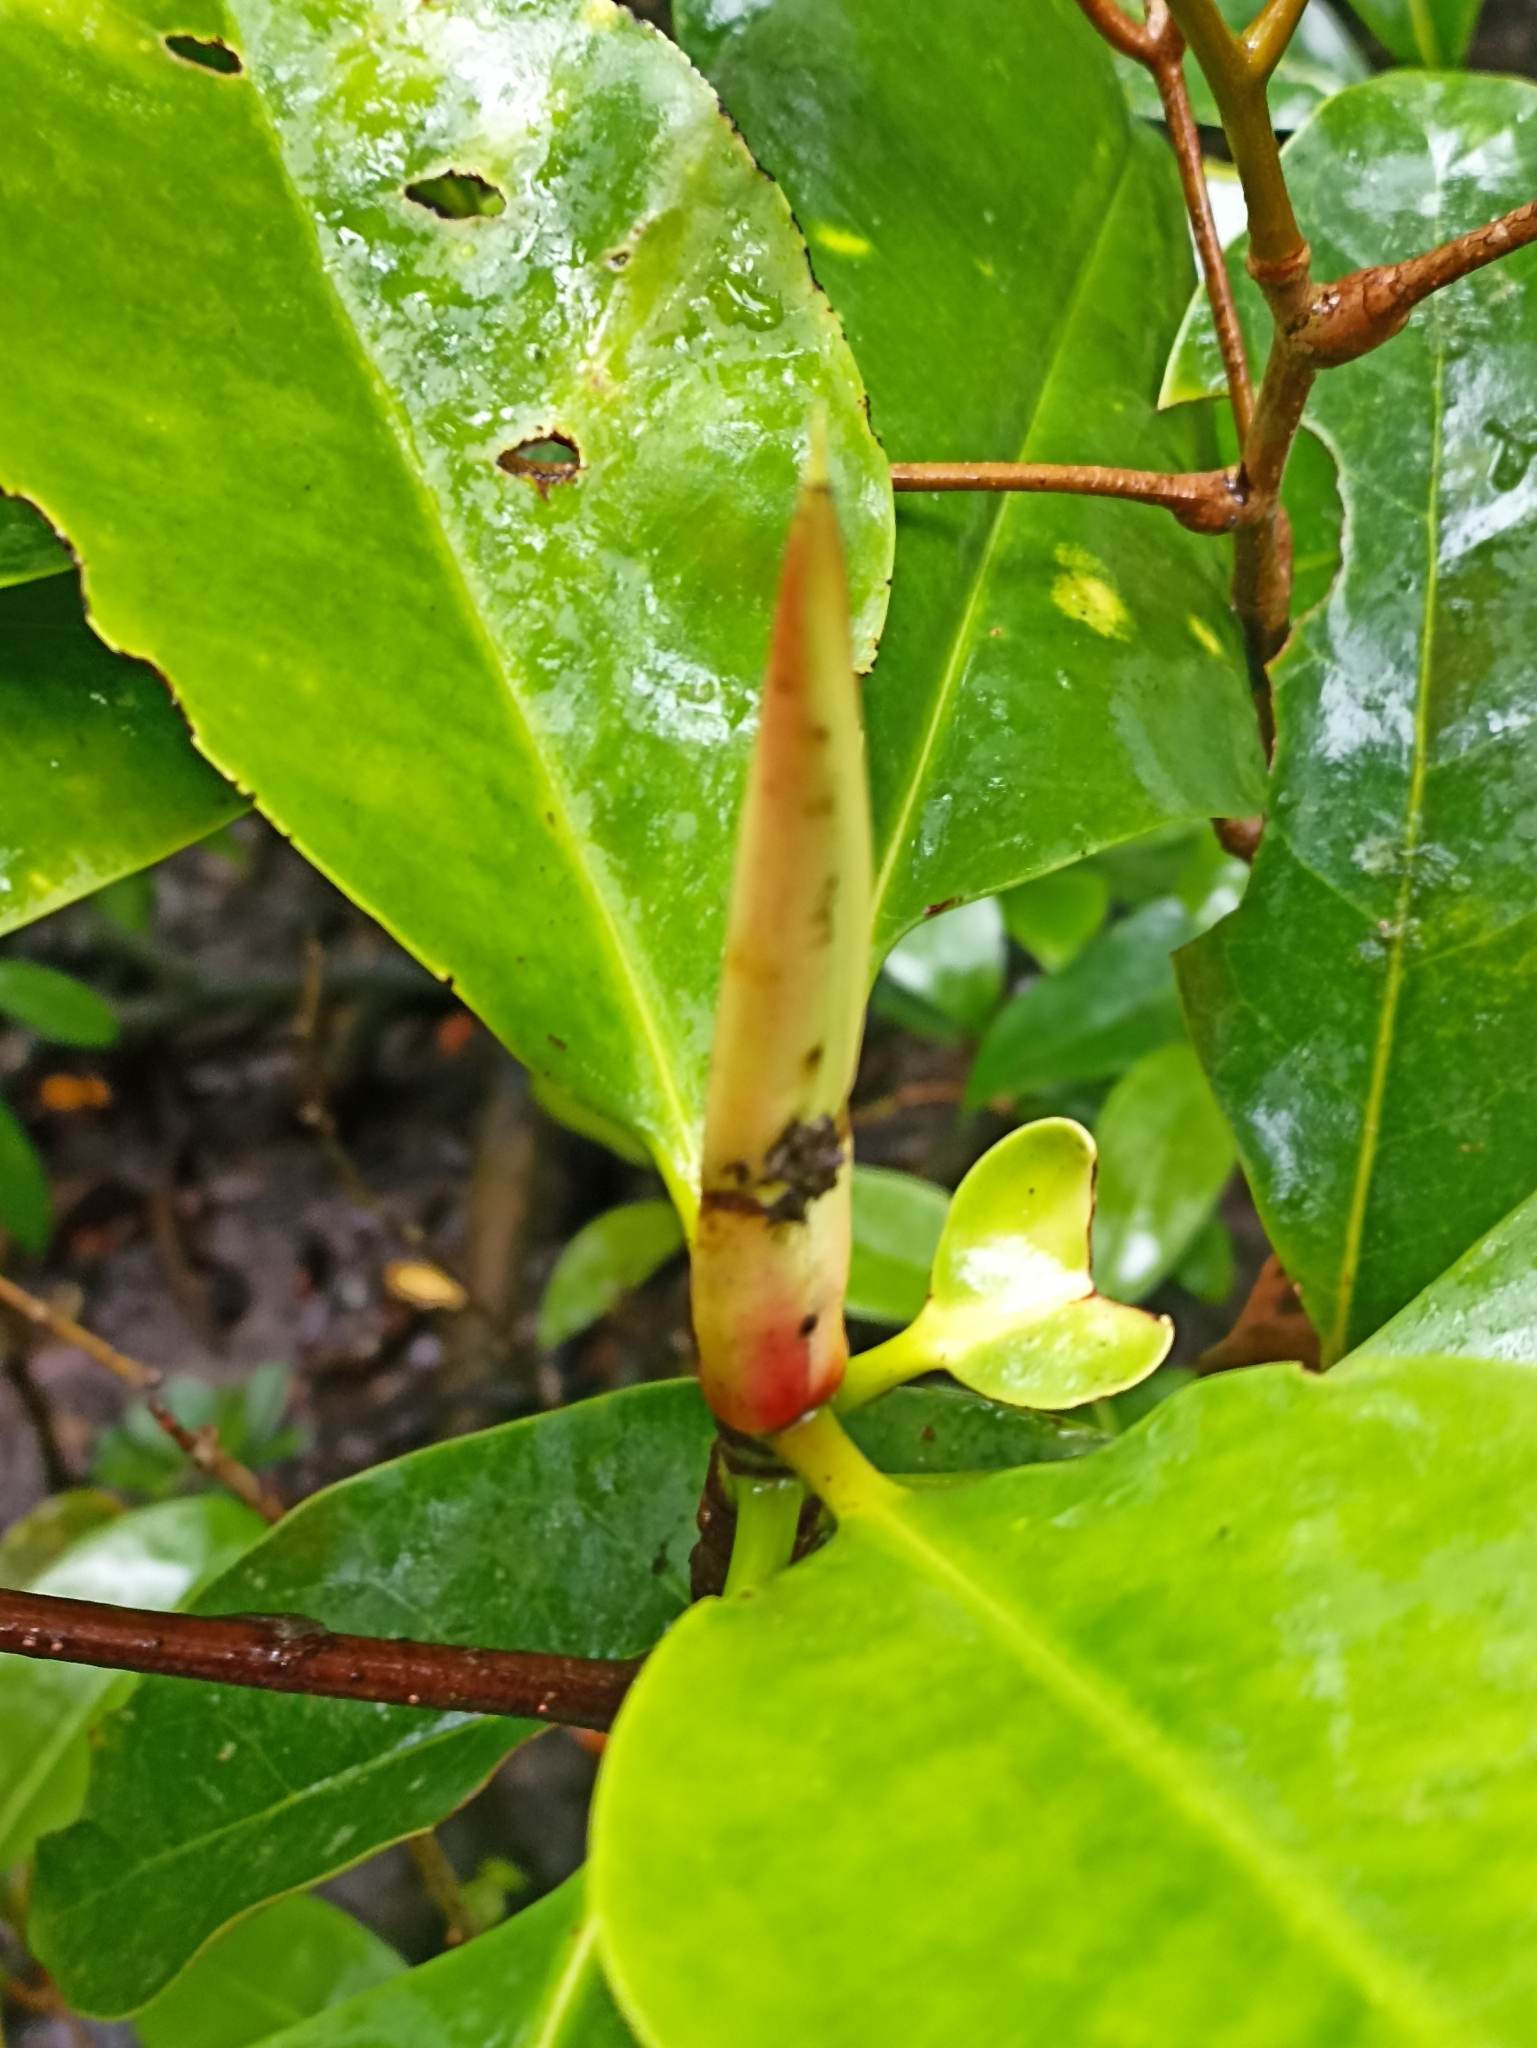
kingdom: Plantae
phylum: Tracheophyta
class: Magnoliopsida
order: Malpighiales
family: Rhizophoraceae
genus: Rhizophora
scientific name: Rhizophora stylosa
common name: Red mangrove
